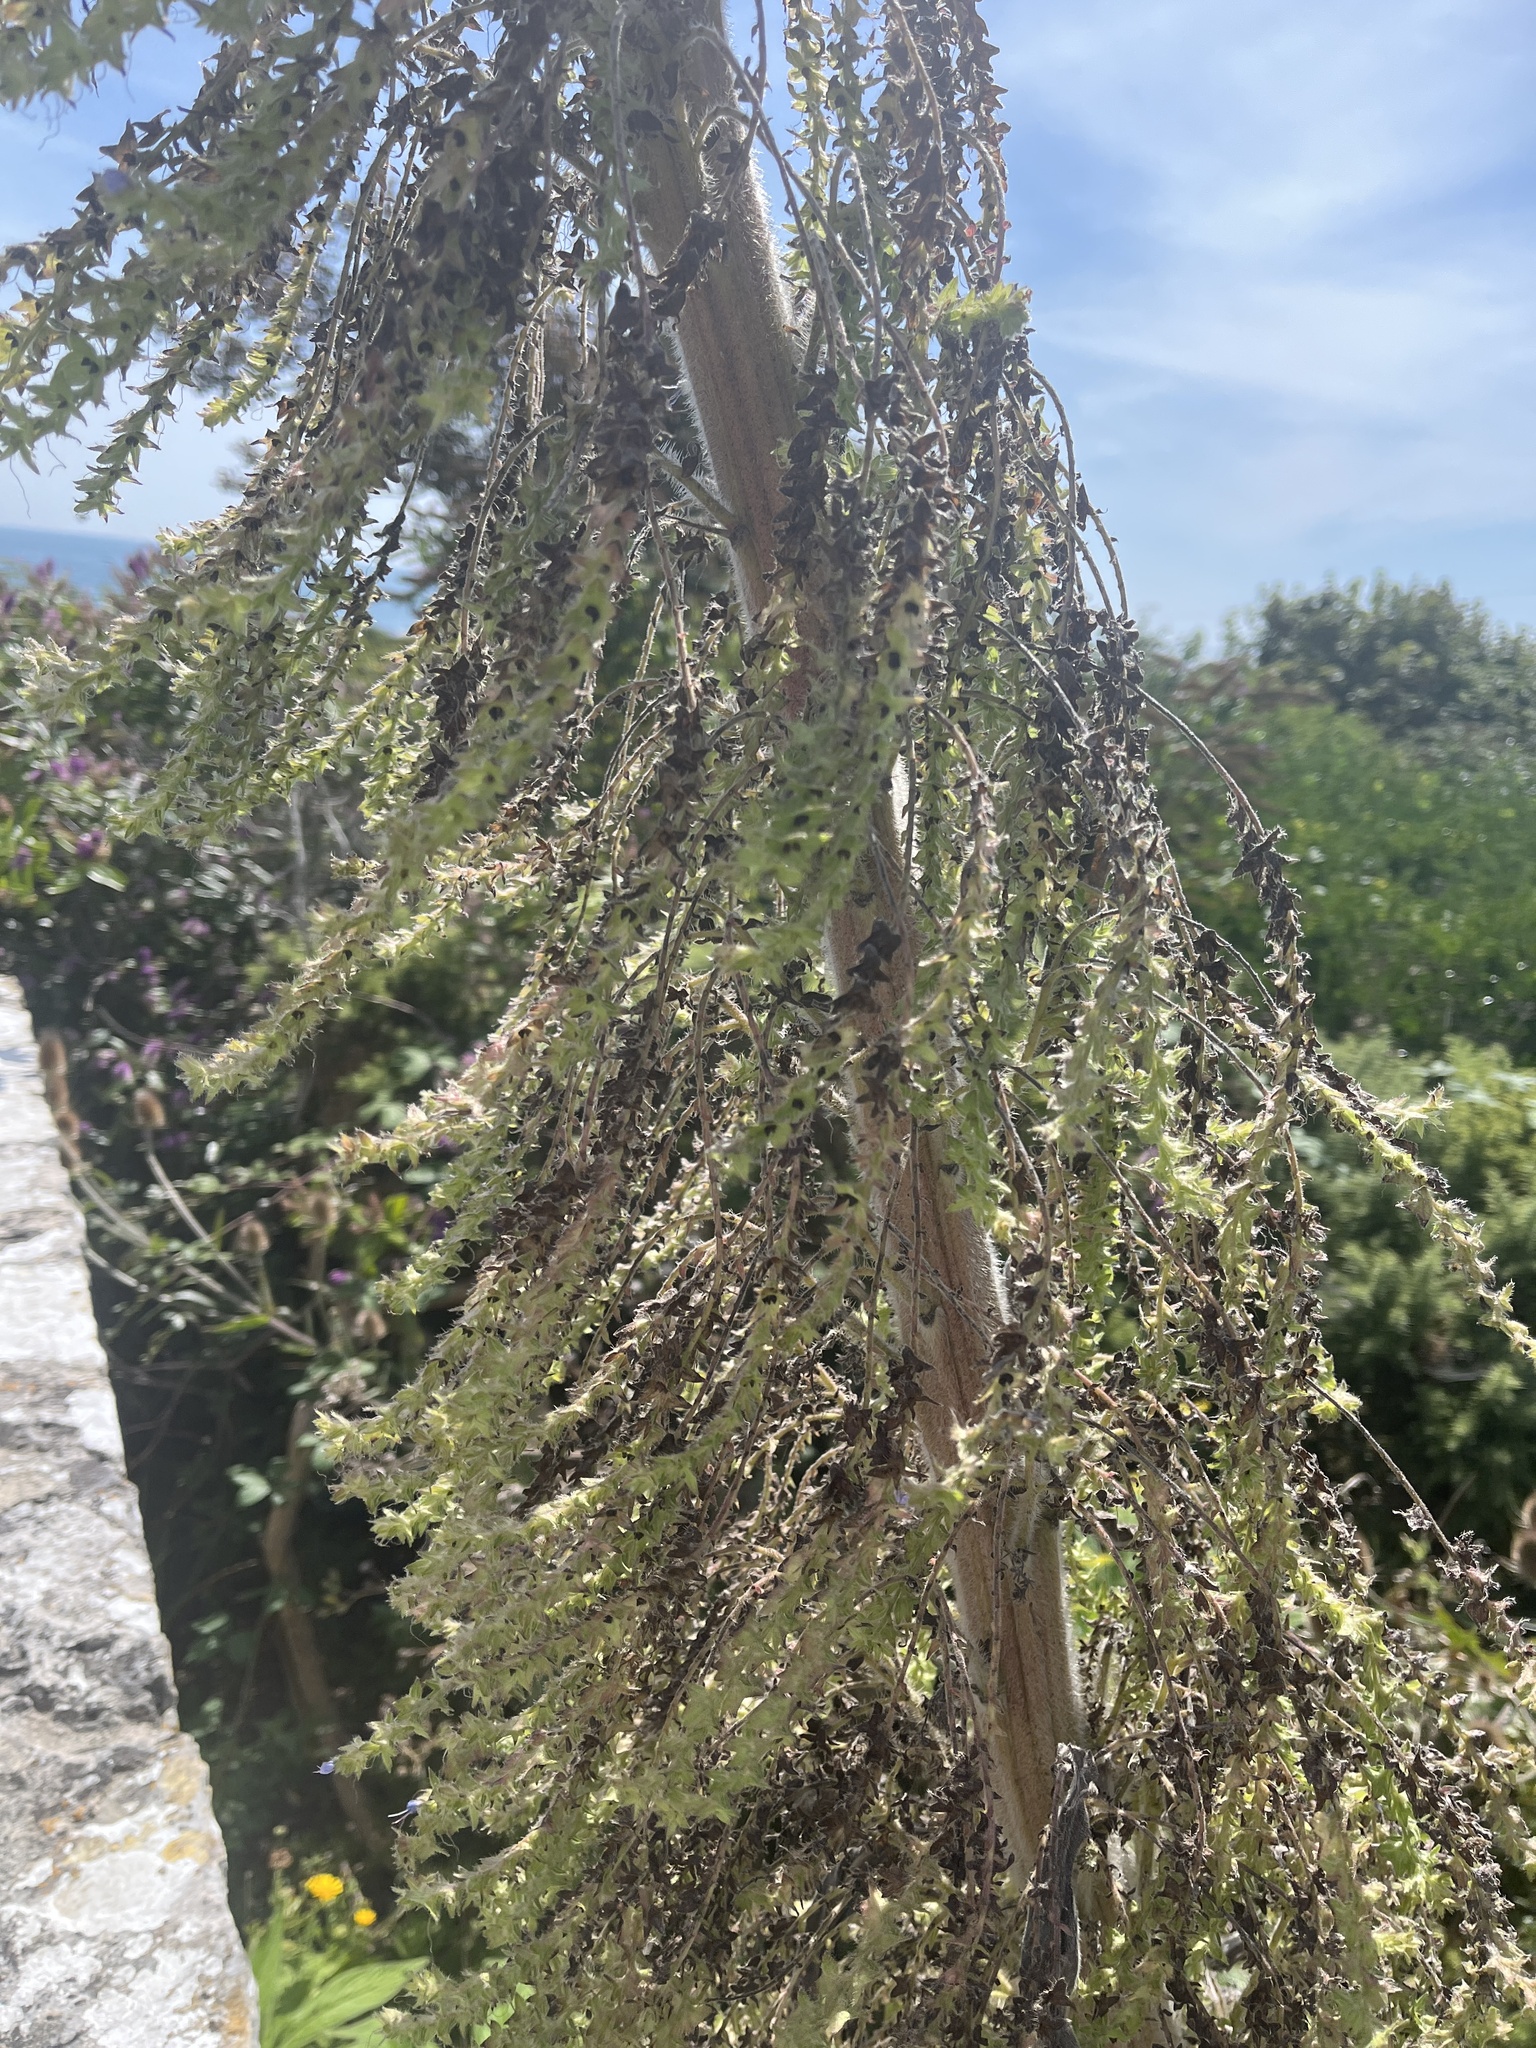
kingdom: Plantae
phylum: Tracheophyta
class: Magnoliopsida
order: Boraginales
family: Boraginaceae
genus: Echium
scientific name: Echium pininana
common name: Giant viper's-bugloss
